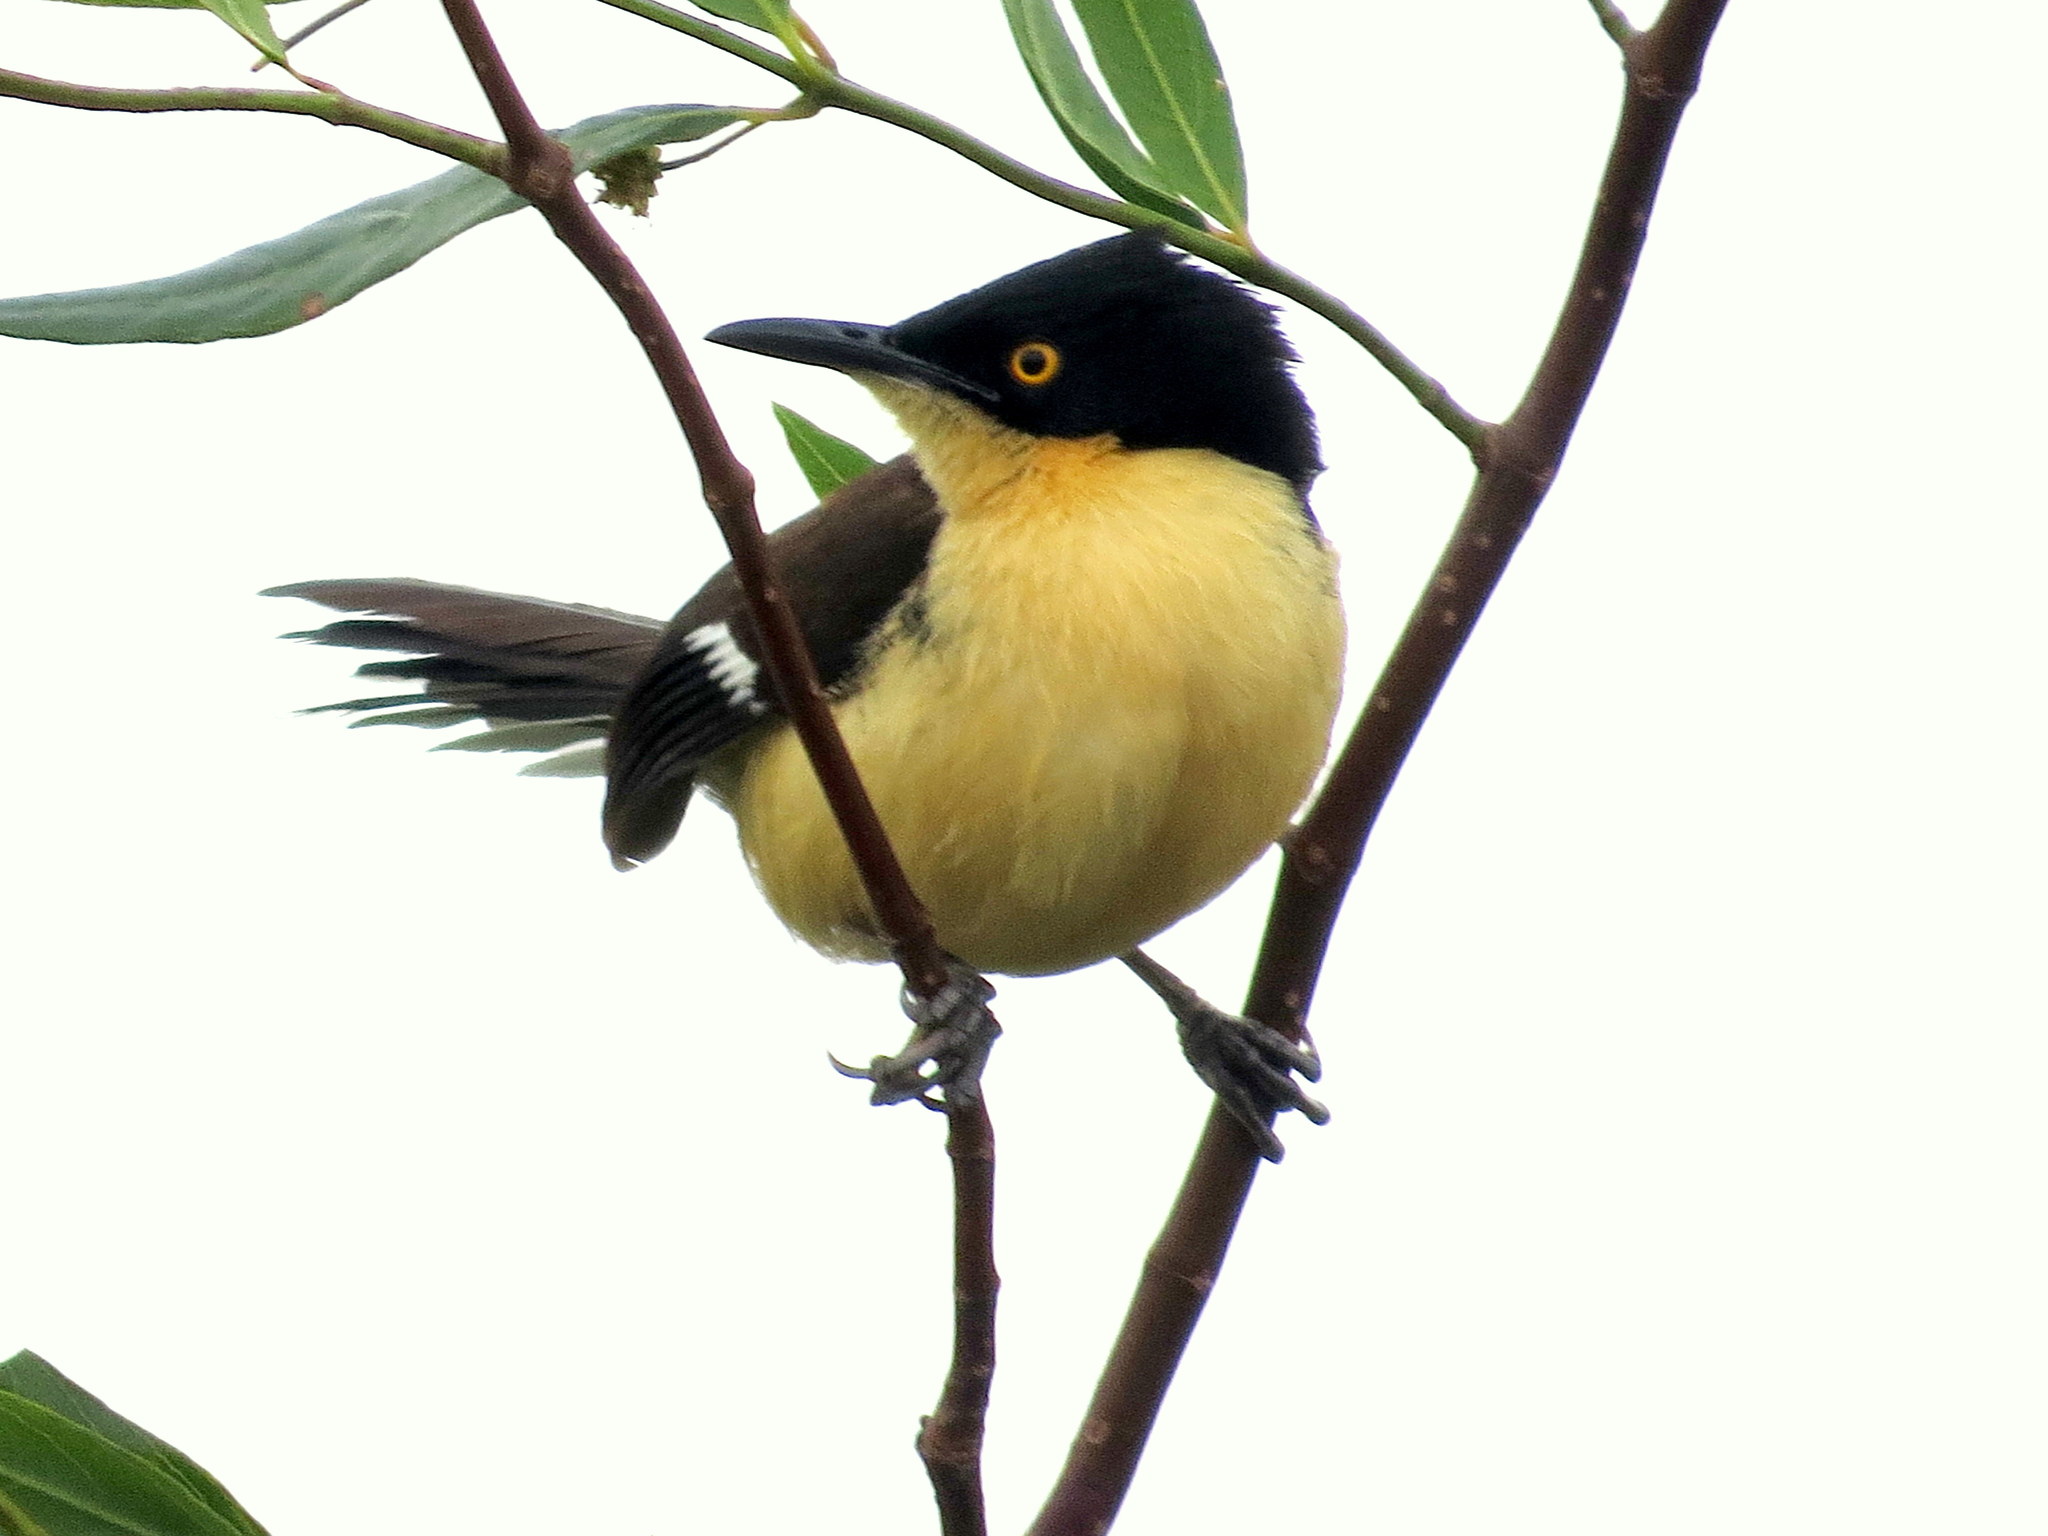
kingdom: Animalia
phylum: Chordata
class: Aves
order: Passeriformes
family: Donacobiidae
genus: Donacobius
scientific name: Donacobius atricapilla
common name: Black-capped donacobius
